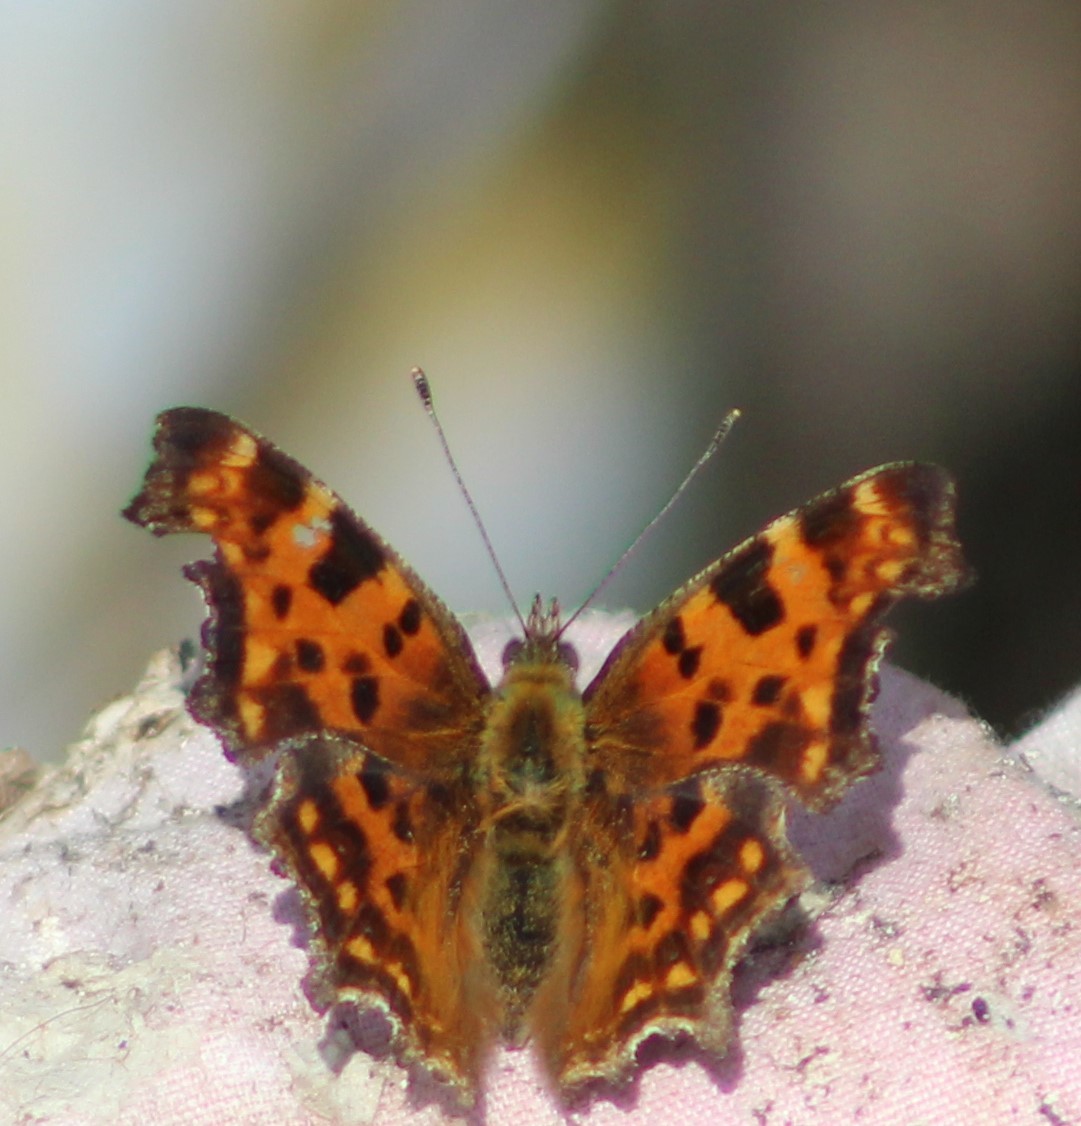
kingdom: Animalia
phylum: Arthropoda
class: Insecta
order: Lepidoptera
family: Nymphalidae
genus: Polygonia
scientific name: Polygonia c-album
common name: Comma
